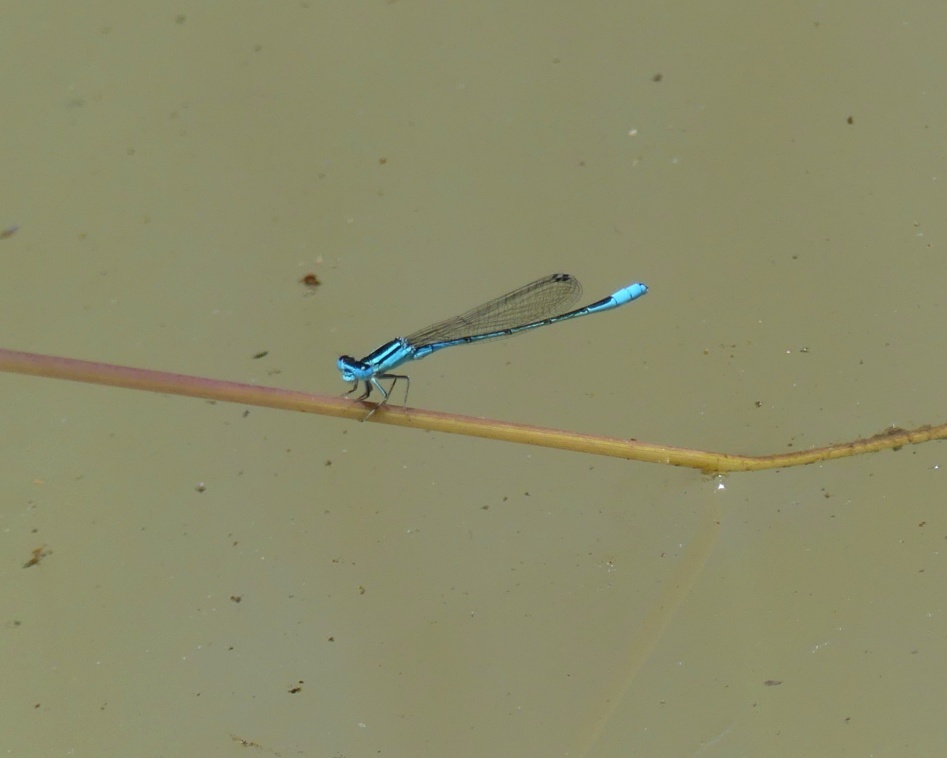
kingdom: Animalia
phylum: Arthropoda
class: Insecta
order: Odonata
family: Coenagrionidae
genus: Africallagma
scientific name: Africallagma glaucum
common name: Swamp bluet
